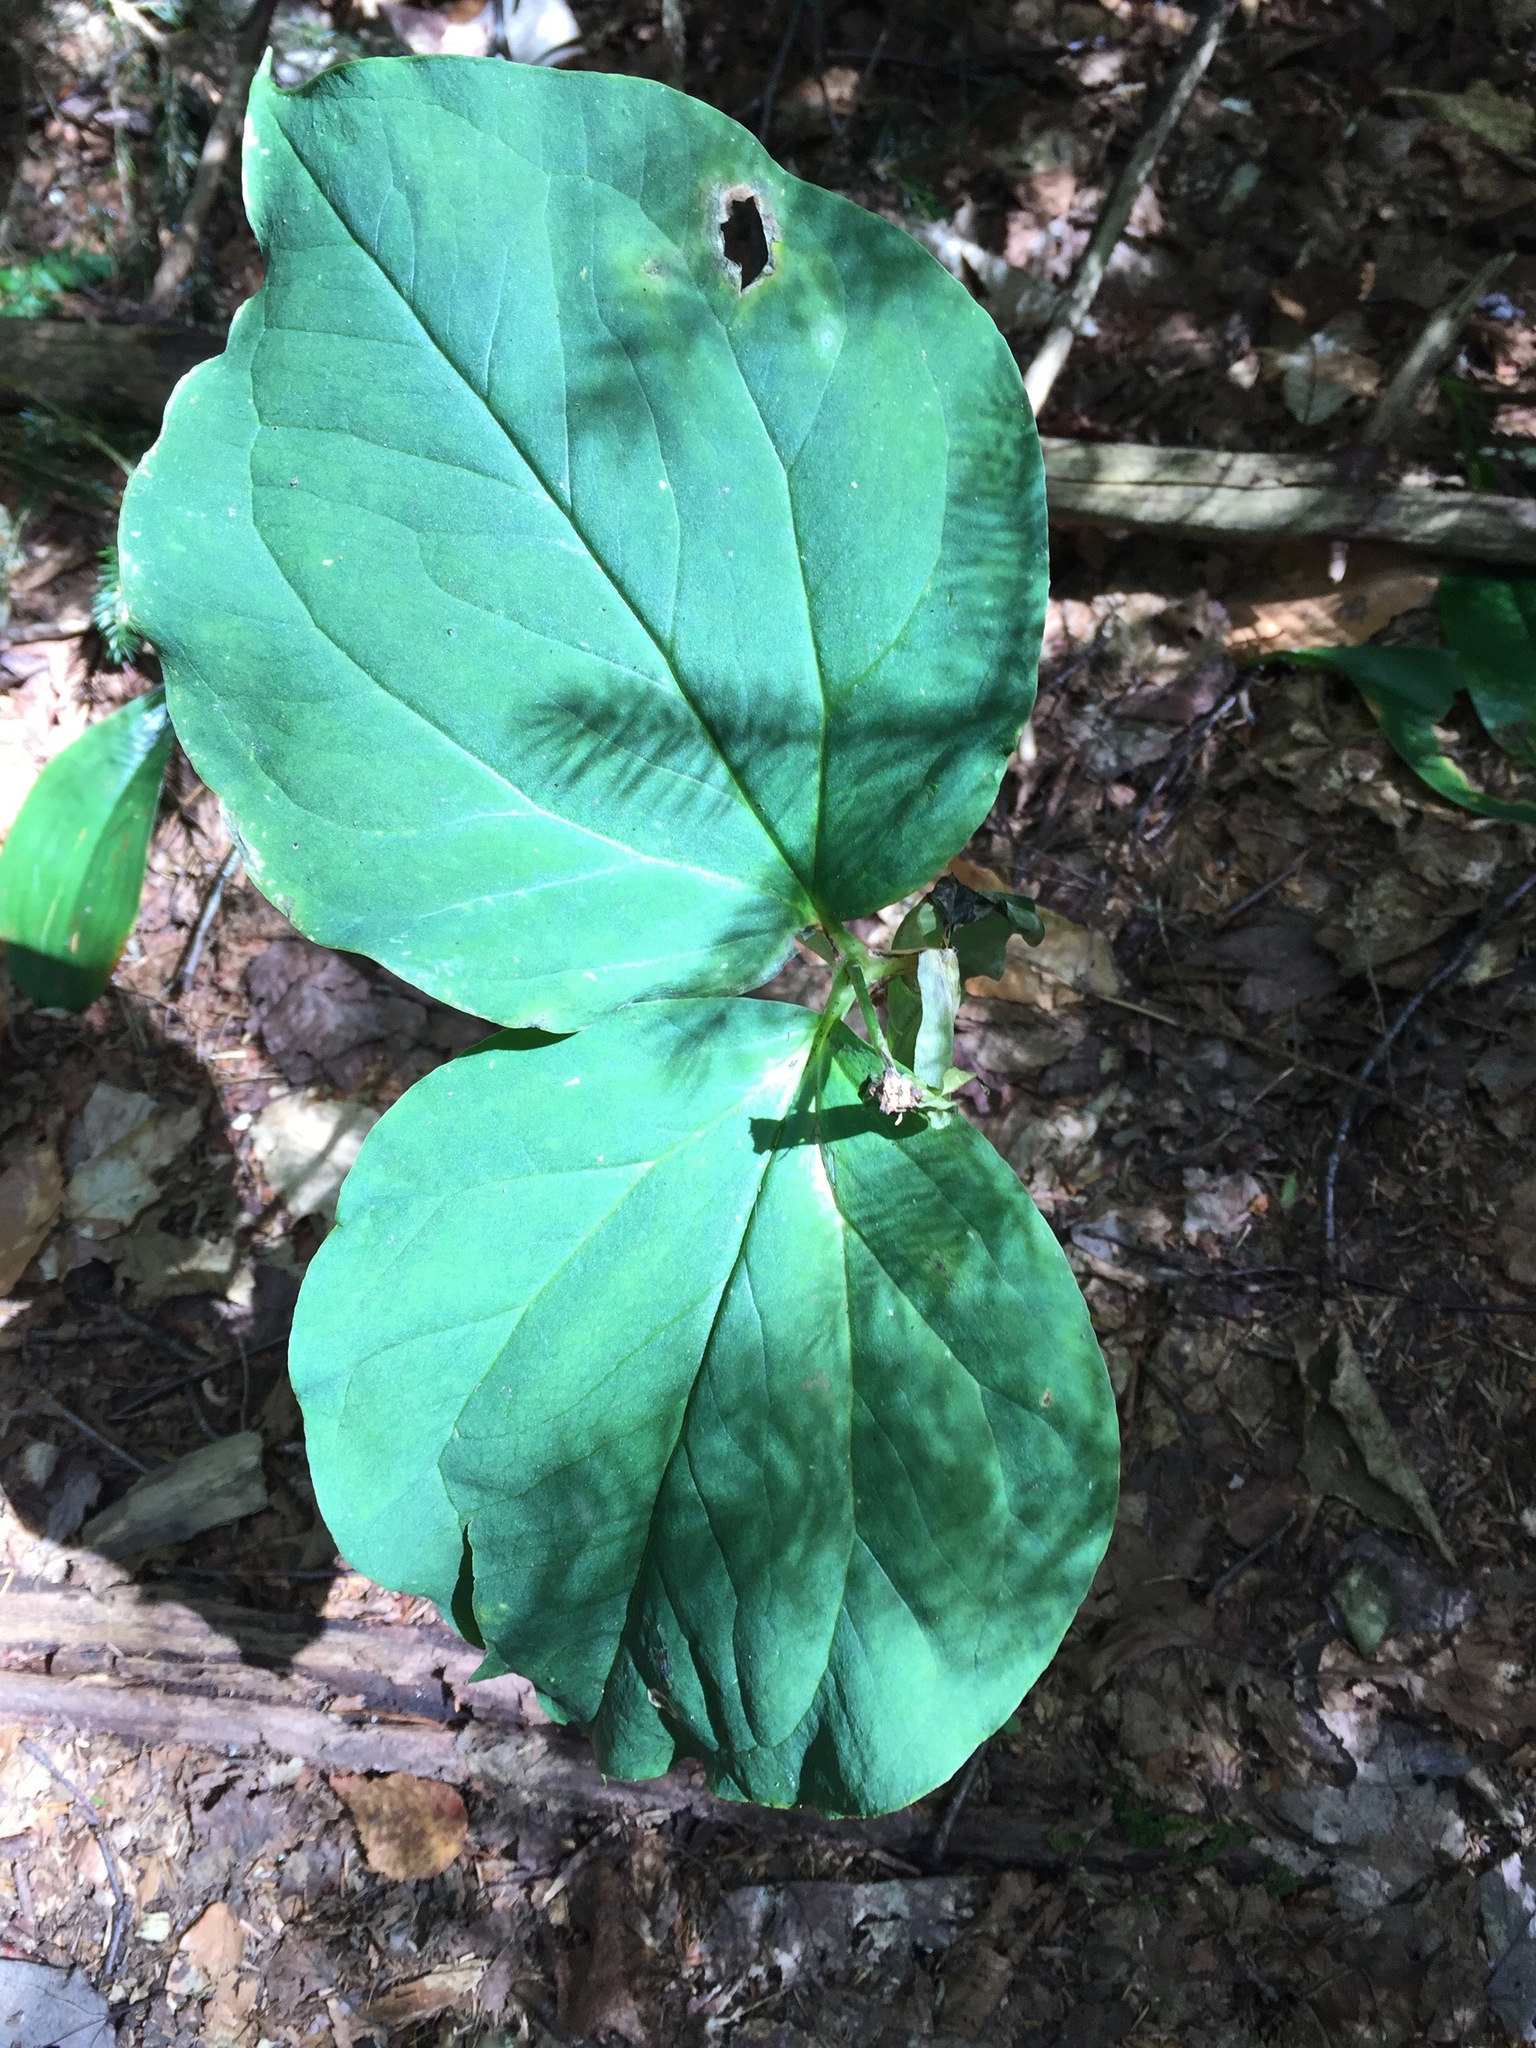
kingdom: Plantae
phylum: Tracheophyta
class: Liliopsida
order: Liliales
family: Melanthiaceae
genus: Trillium
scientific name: Trillium undulatum
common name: Paint trillium
